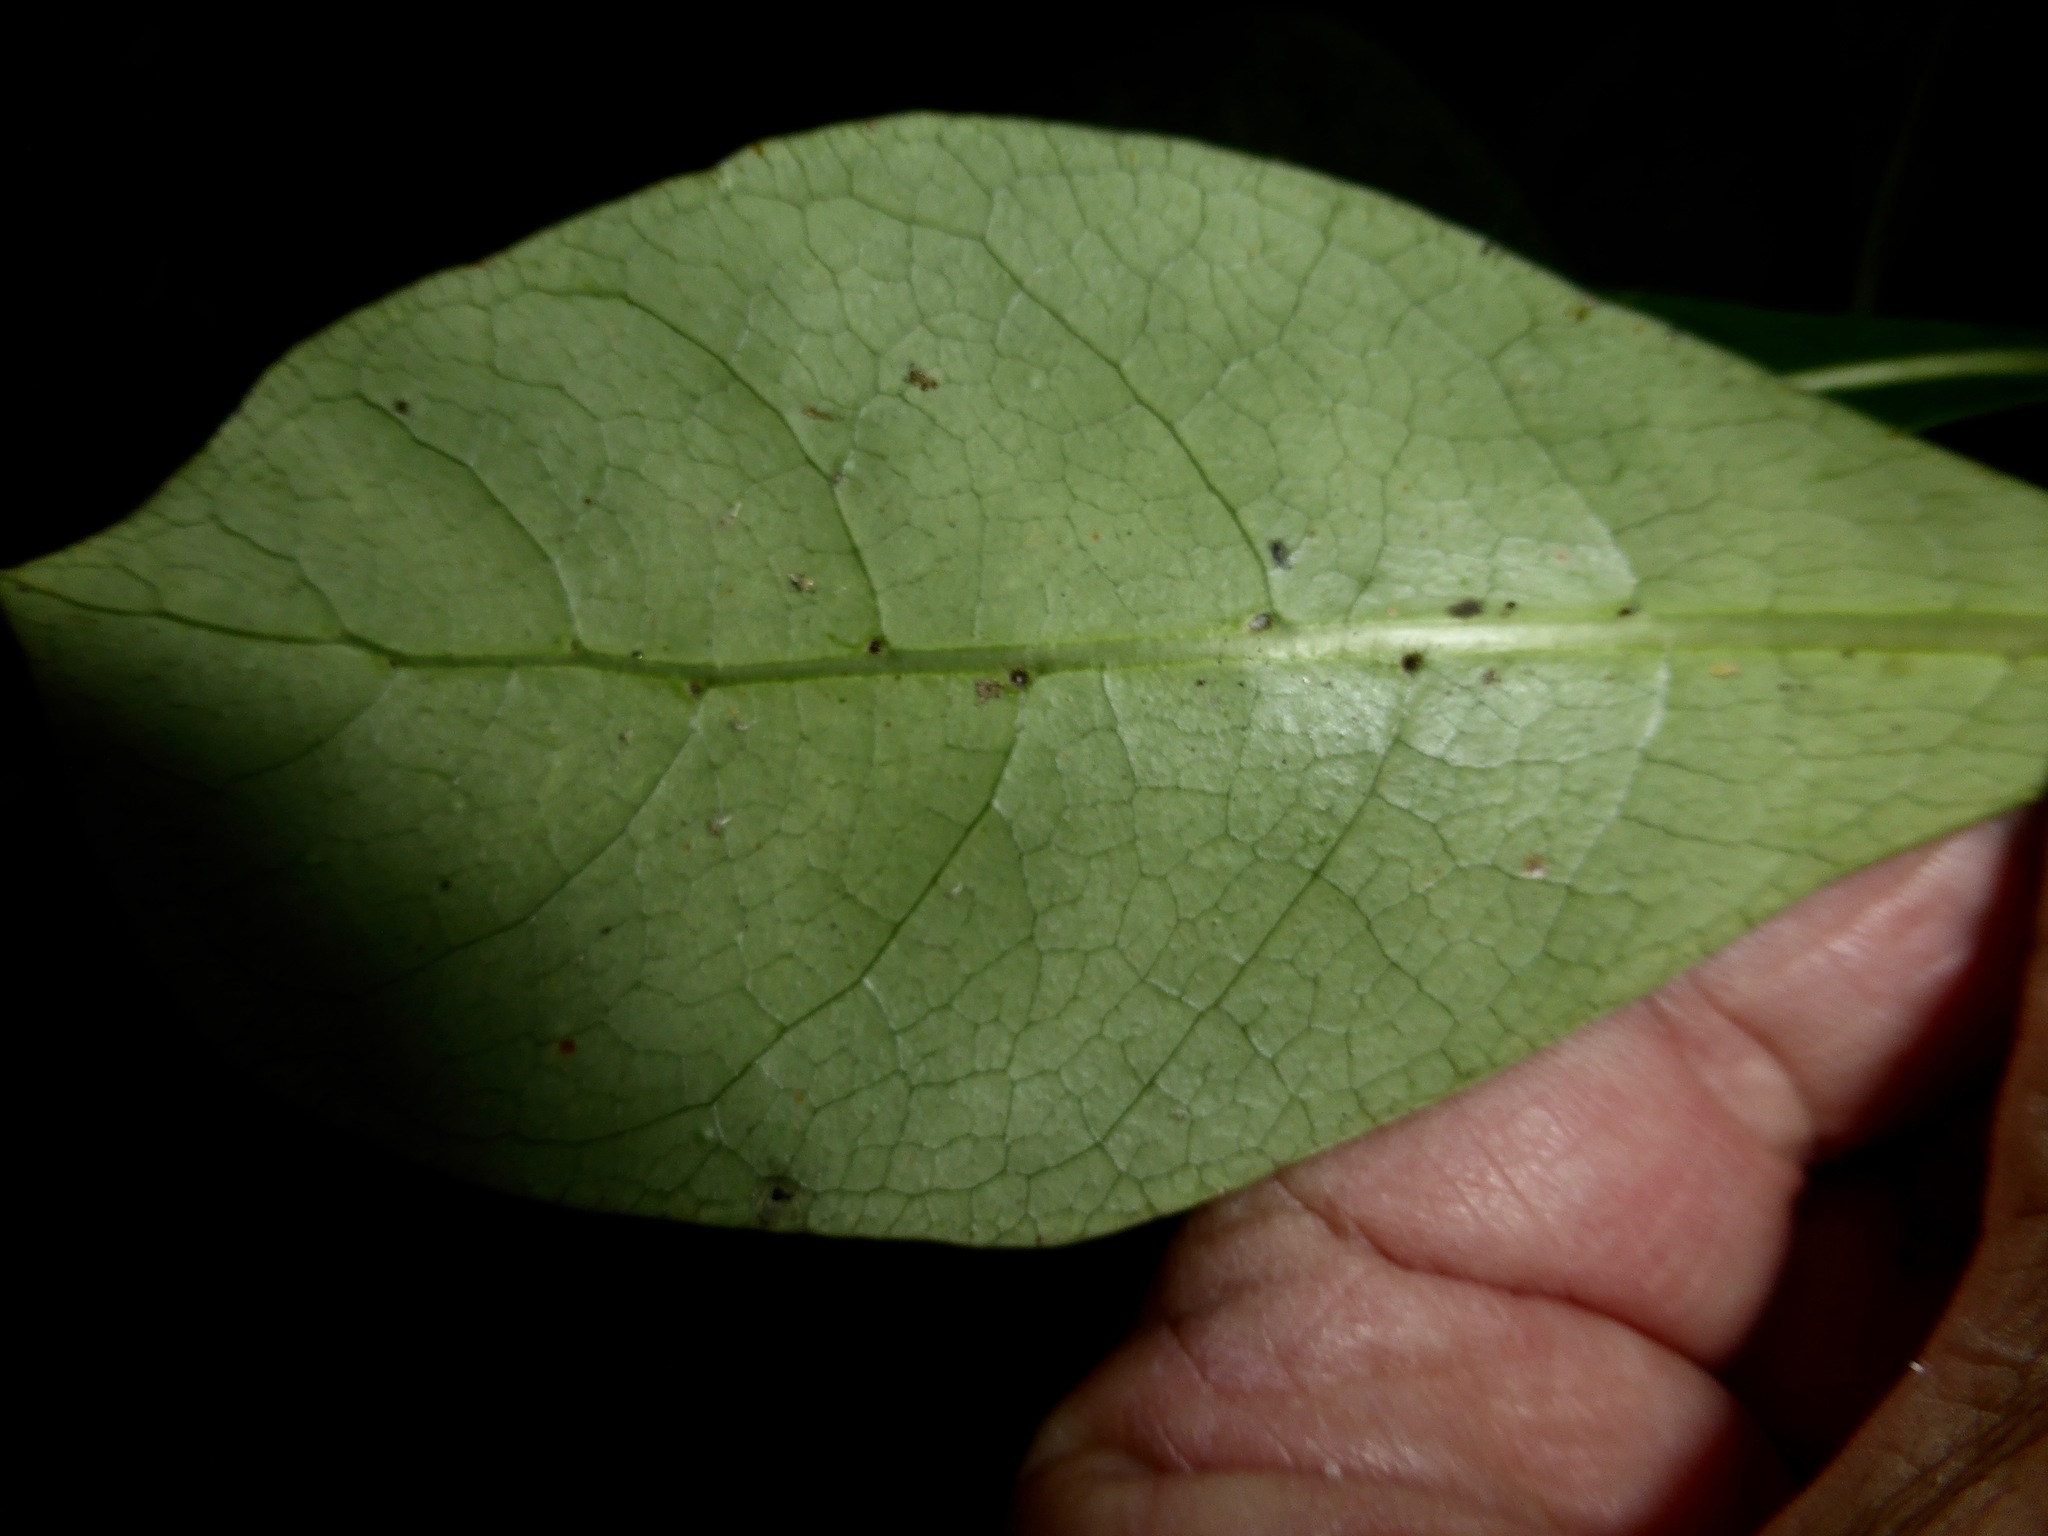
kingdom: Plantae
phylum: Tracheophyta
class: Magnoliopsida
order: Gentianales
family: Rubiaceae
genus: Coprosma
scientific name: Coprosma lucida
